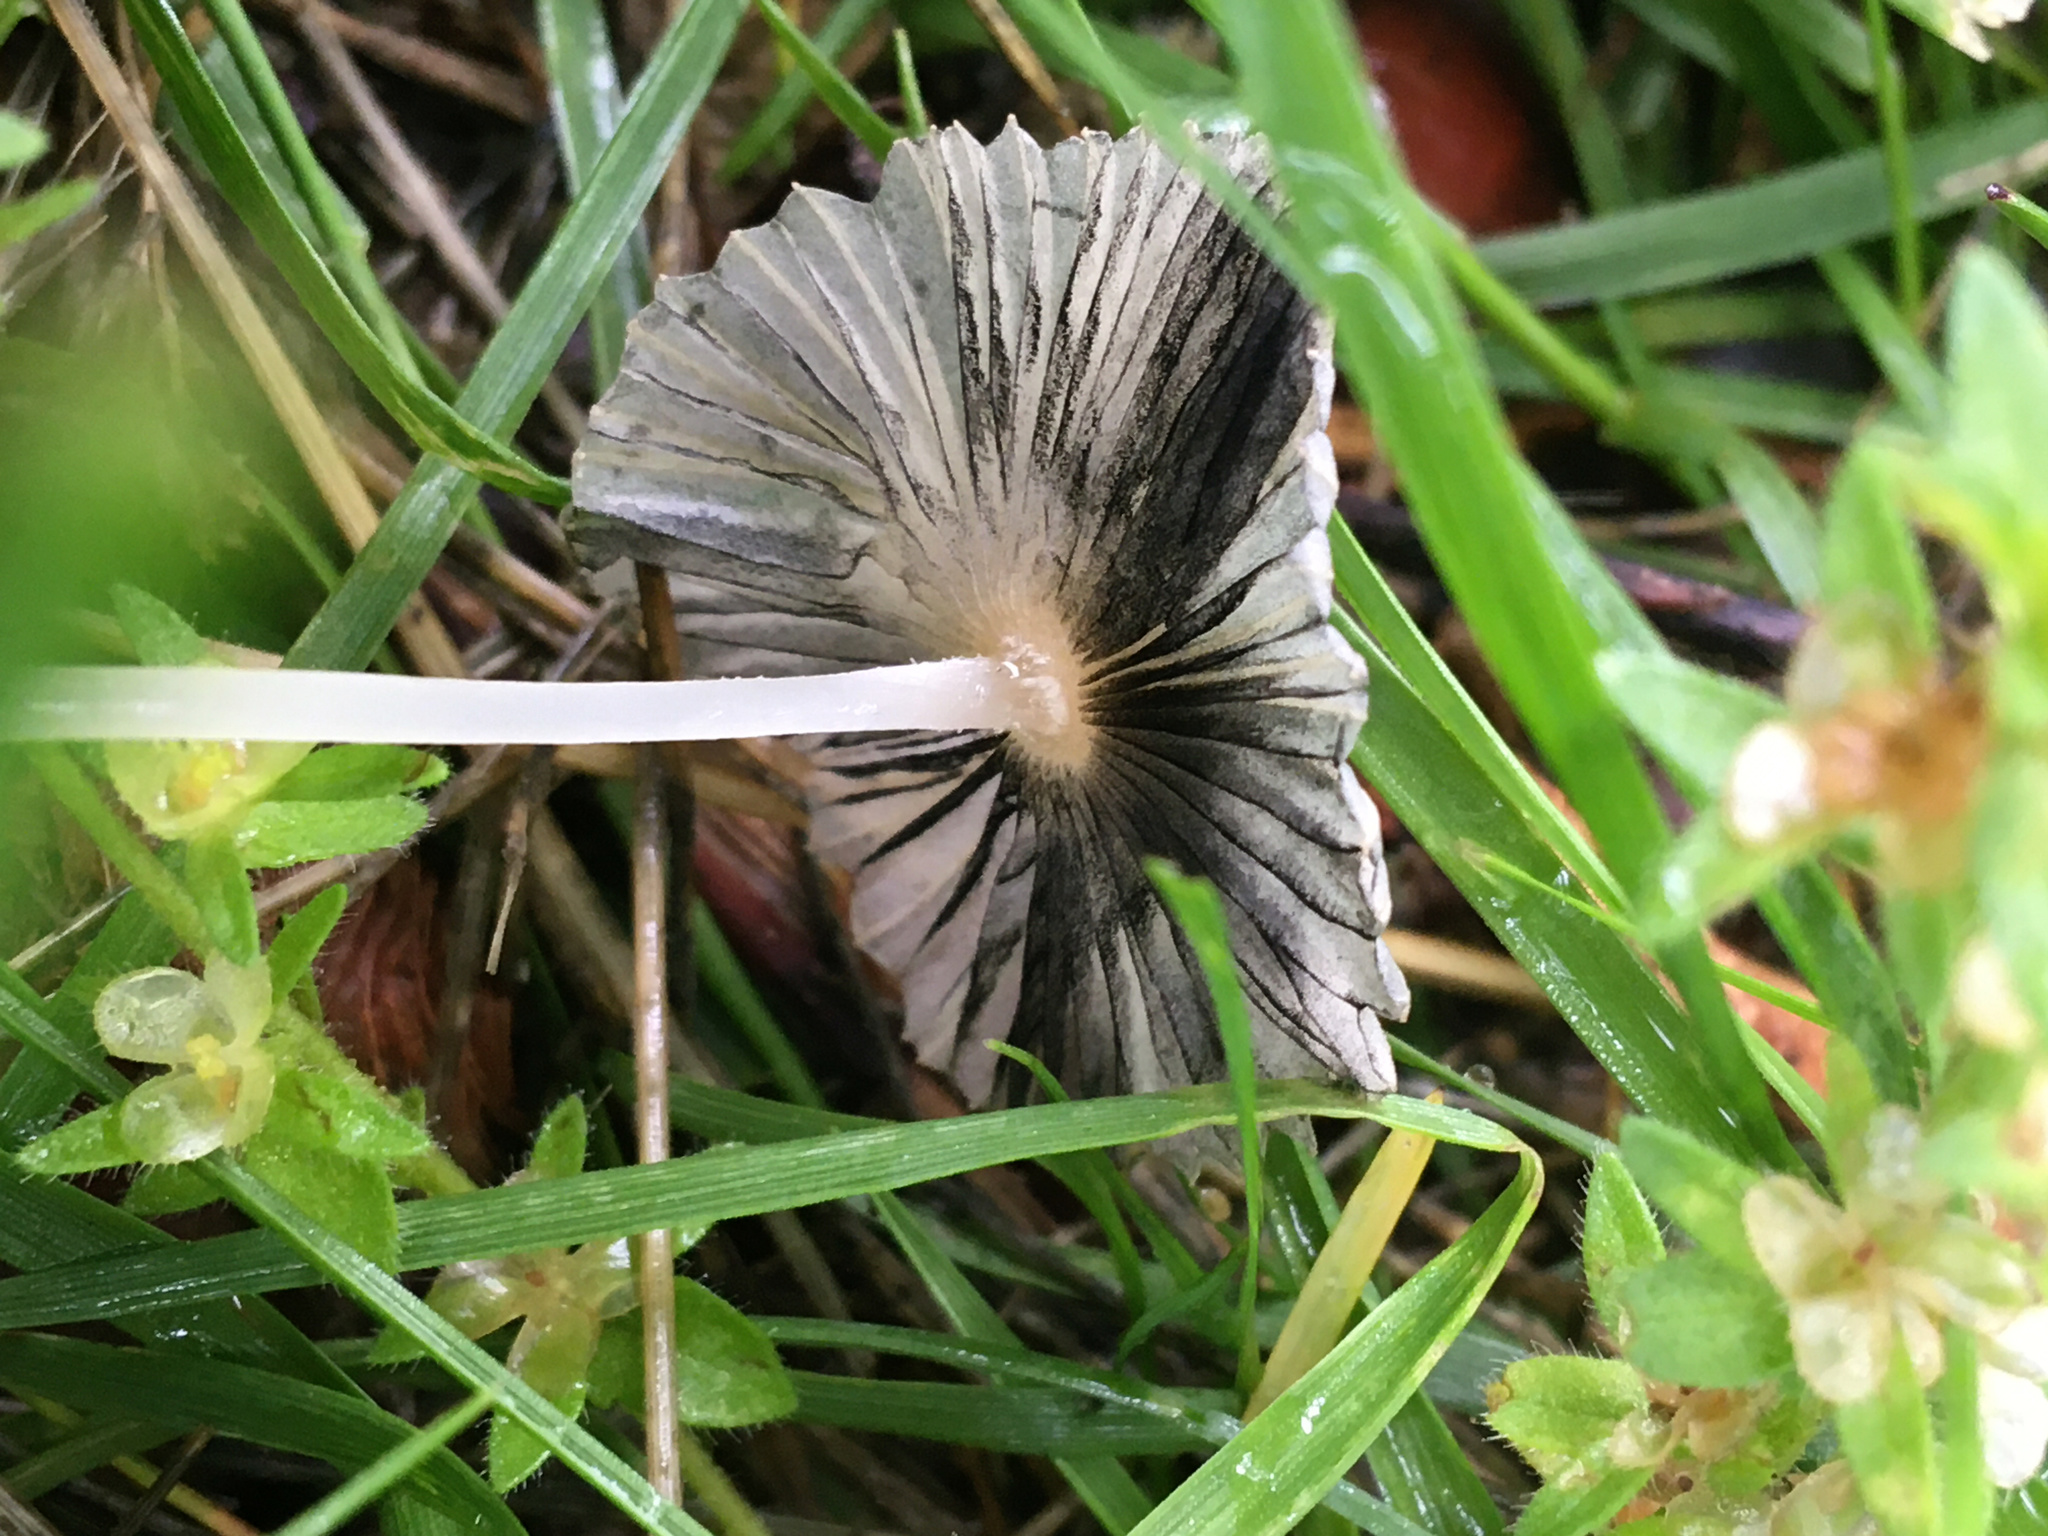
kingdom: Fungi
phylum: Basidiomycota
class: Agaricomycetes
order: Agaricales
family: Psathyrellaceae
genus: Parasola
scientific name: Parasola plicatilis
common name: Pleated inkcap
